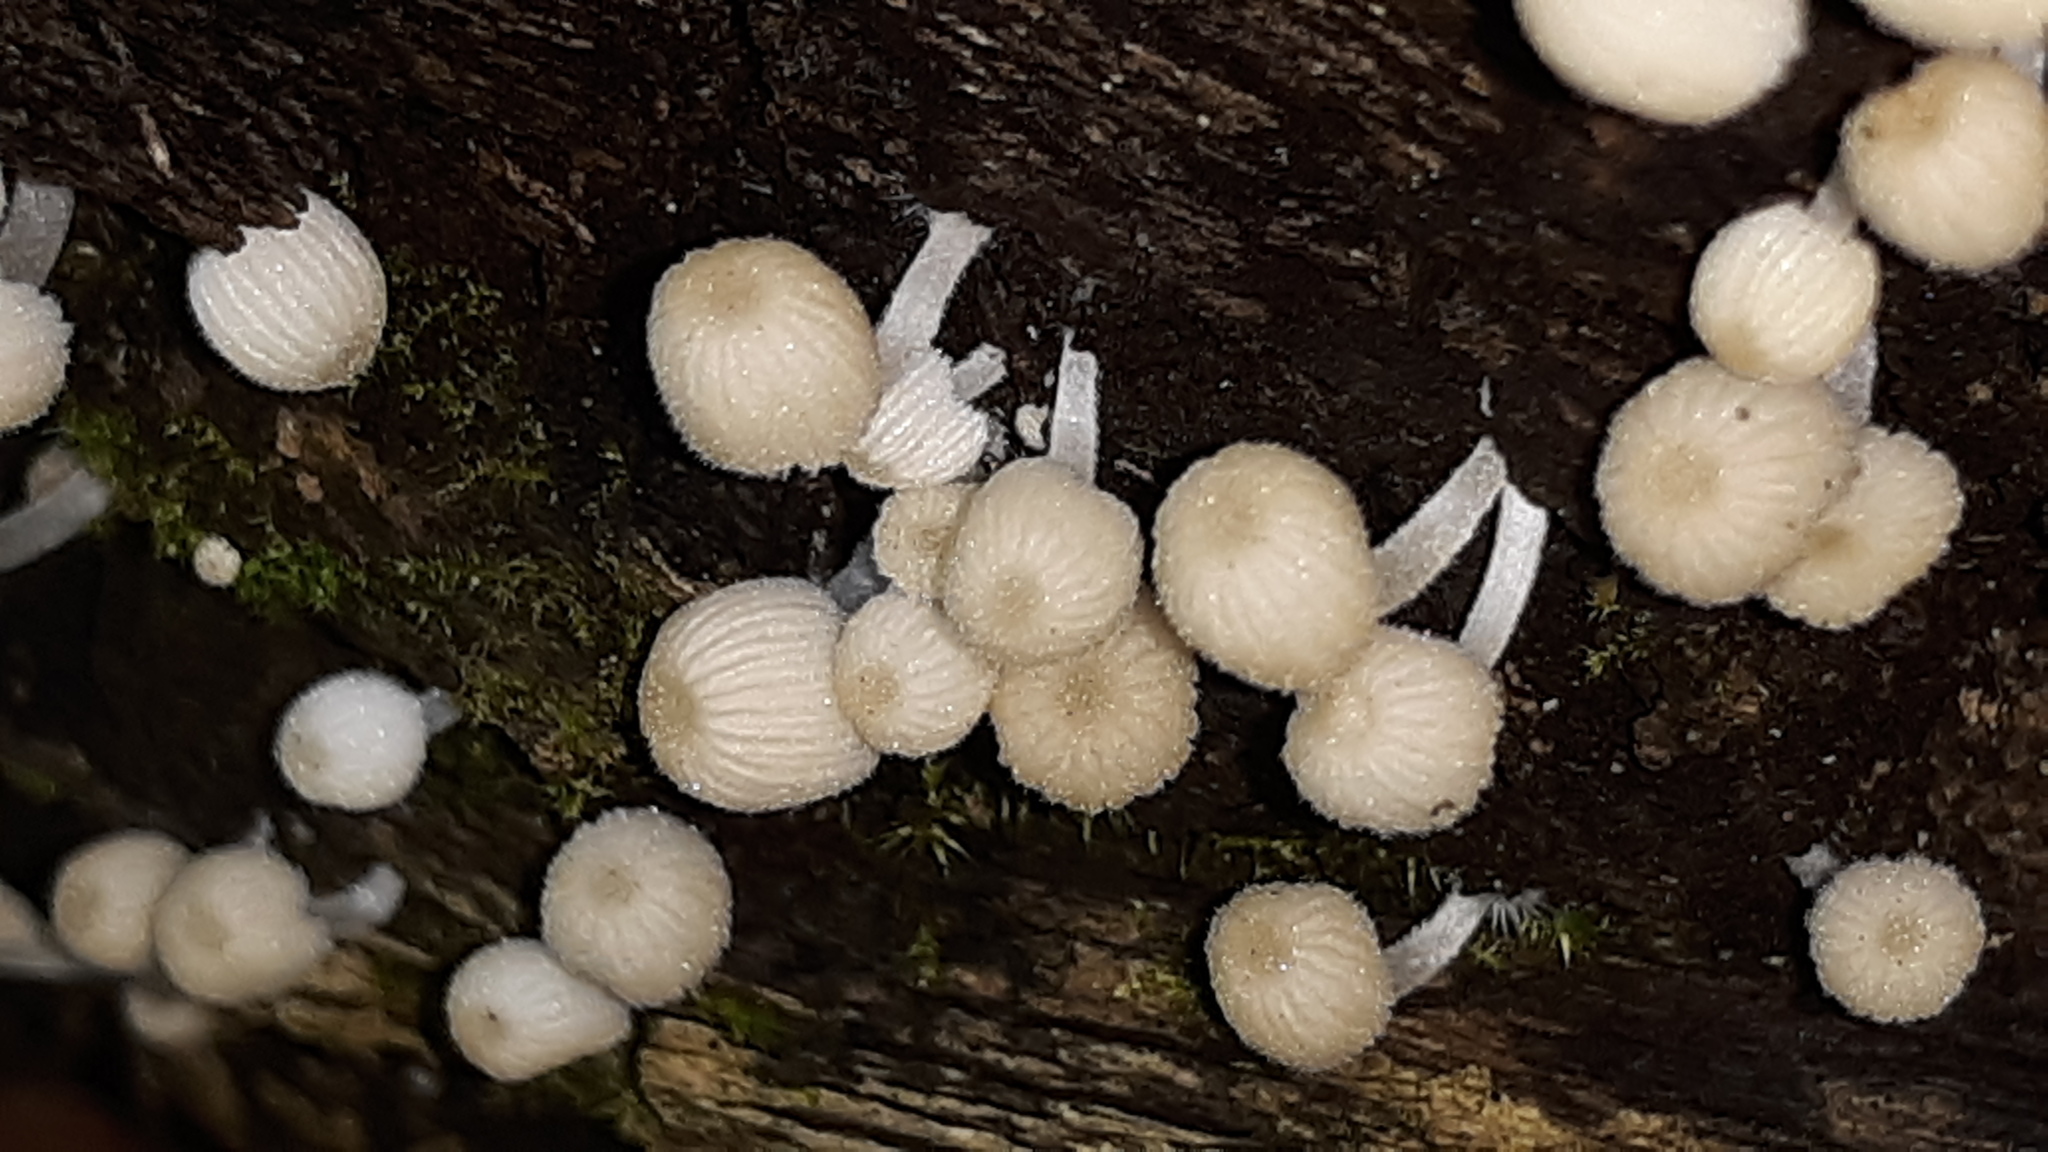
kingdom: Fungi
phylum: Basidiomycota
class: Agaricomycetes
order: Agaricales
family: Psathyrellaceae
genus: Coprinellus
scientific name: Coprinellus disseminatus
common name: Fairies' bonnets
